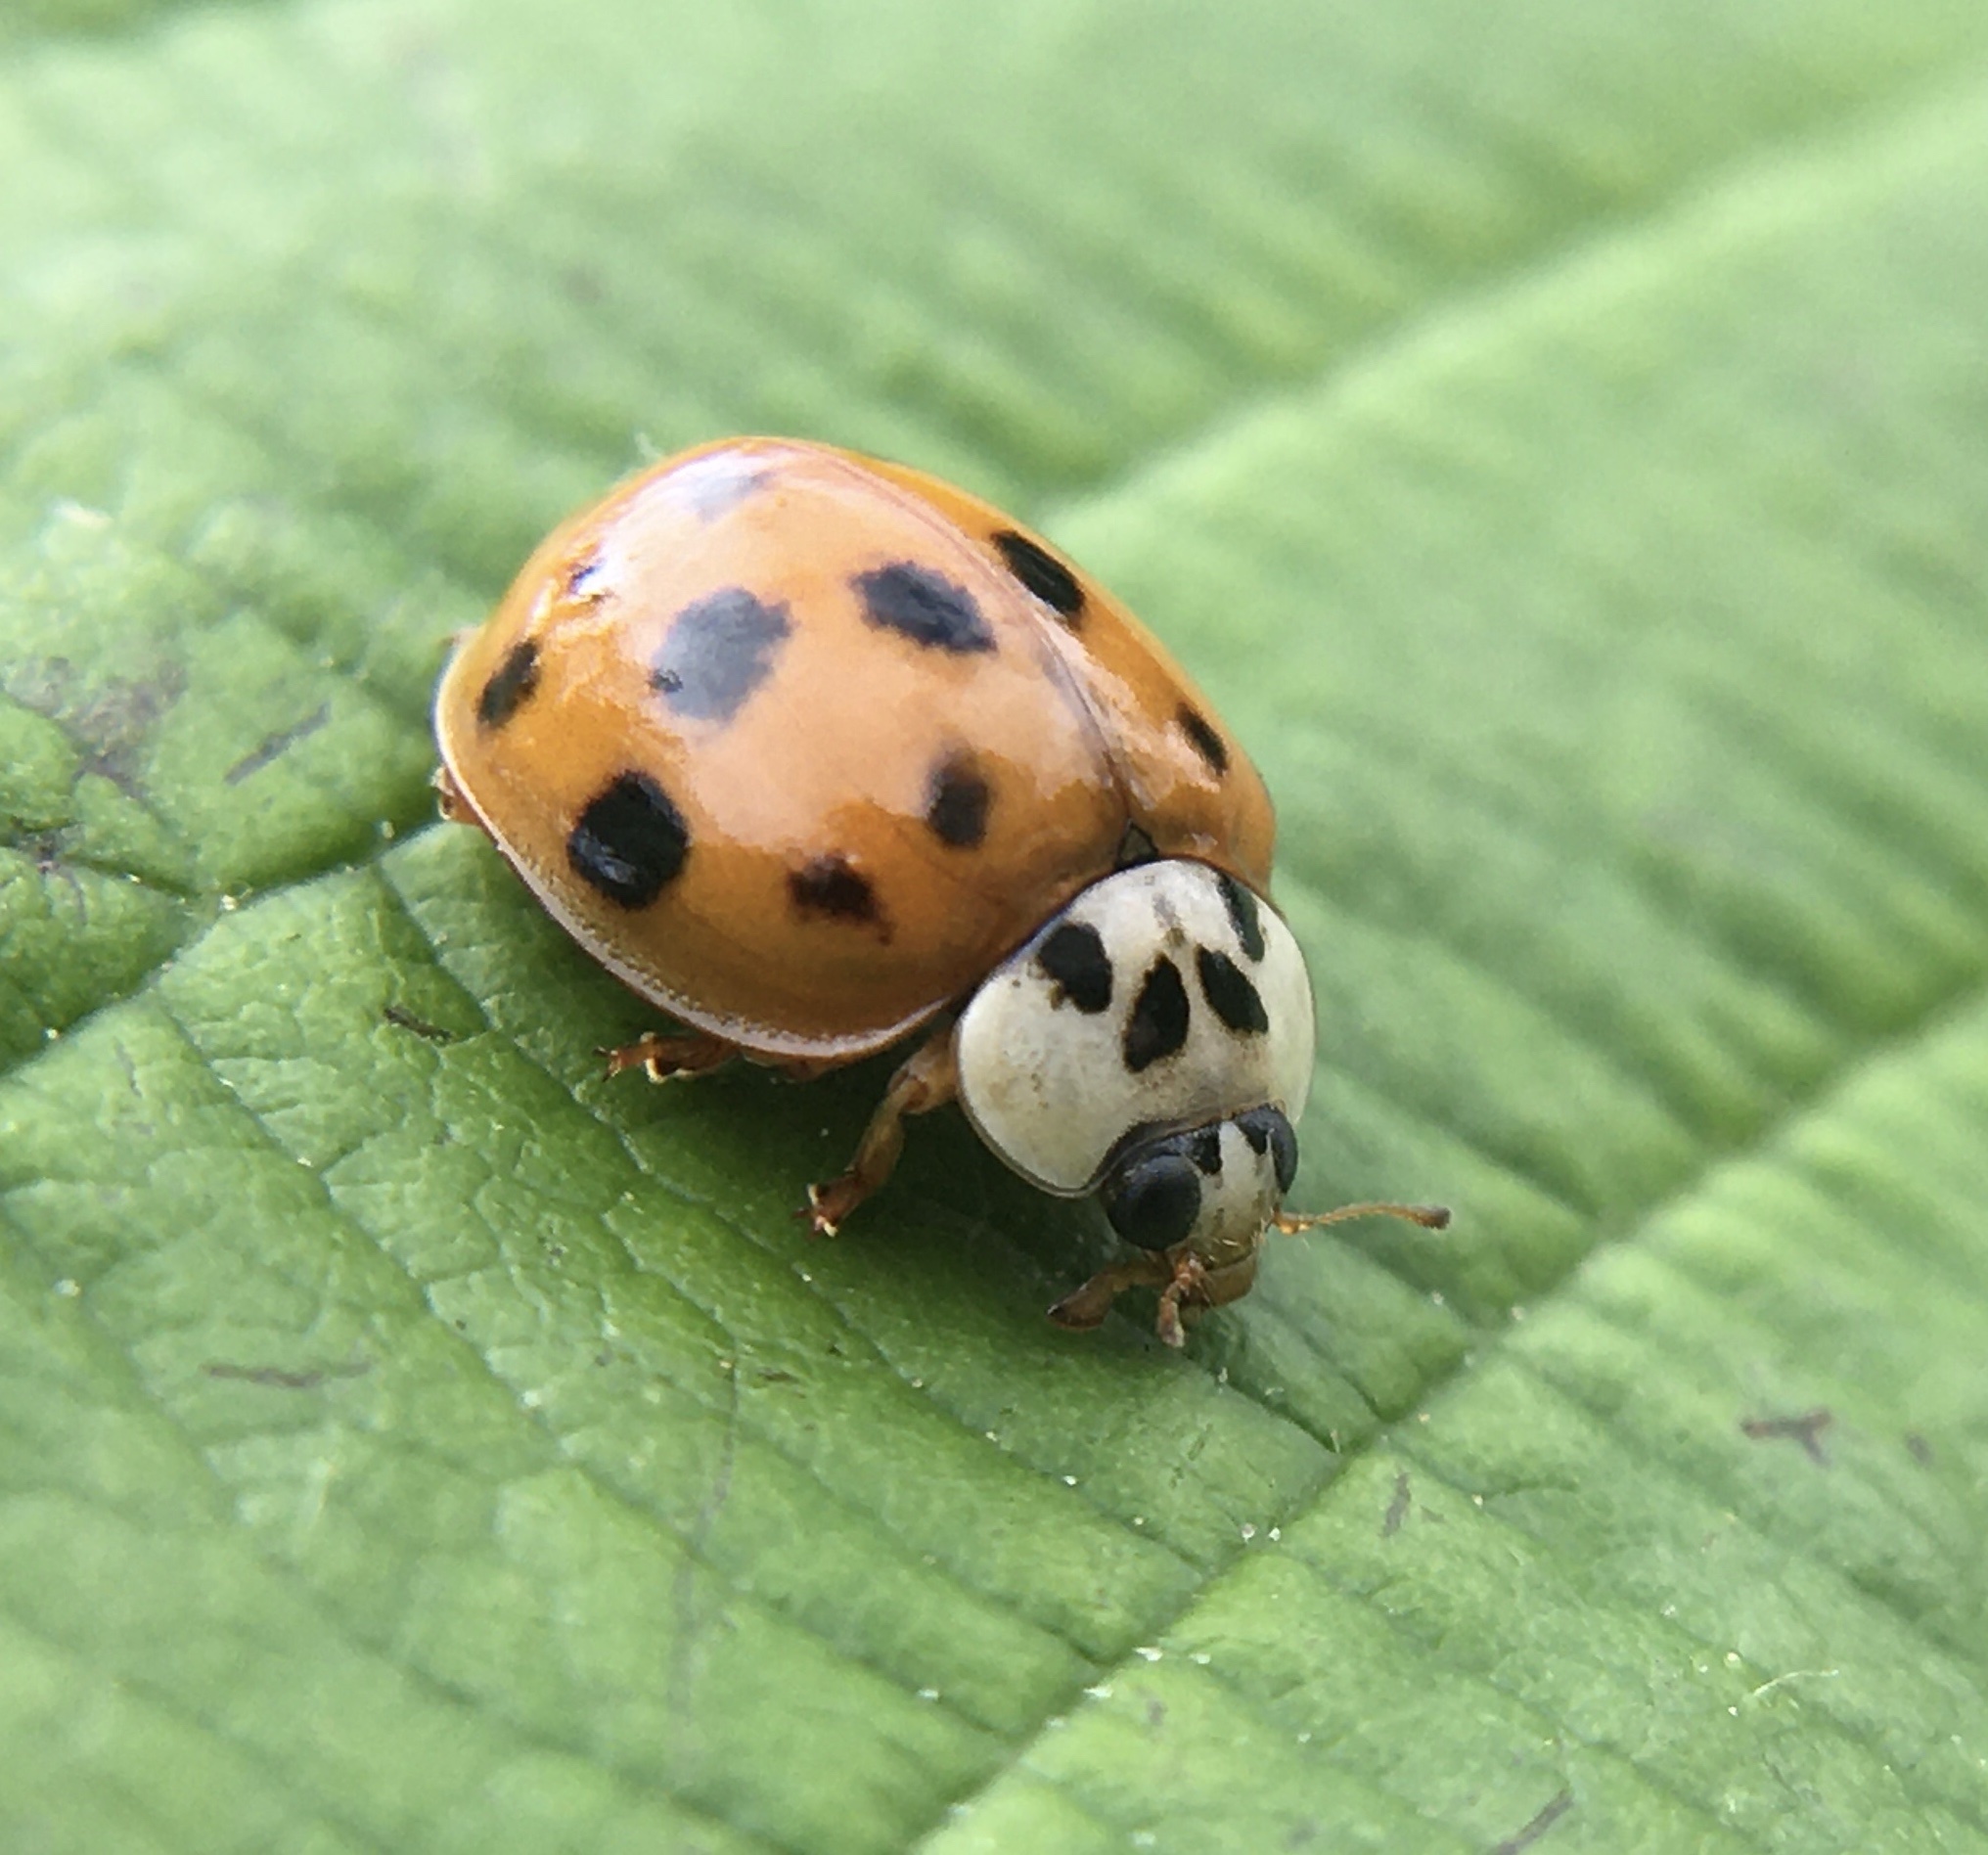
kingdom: Animalia
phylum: Arthropoda
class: Insecta
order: Coleoptera
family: Coccinellidae
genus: Harmonia
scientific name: Harmonia axyridis
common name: Harlequin ladybird
